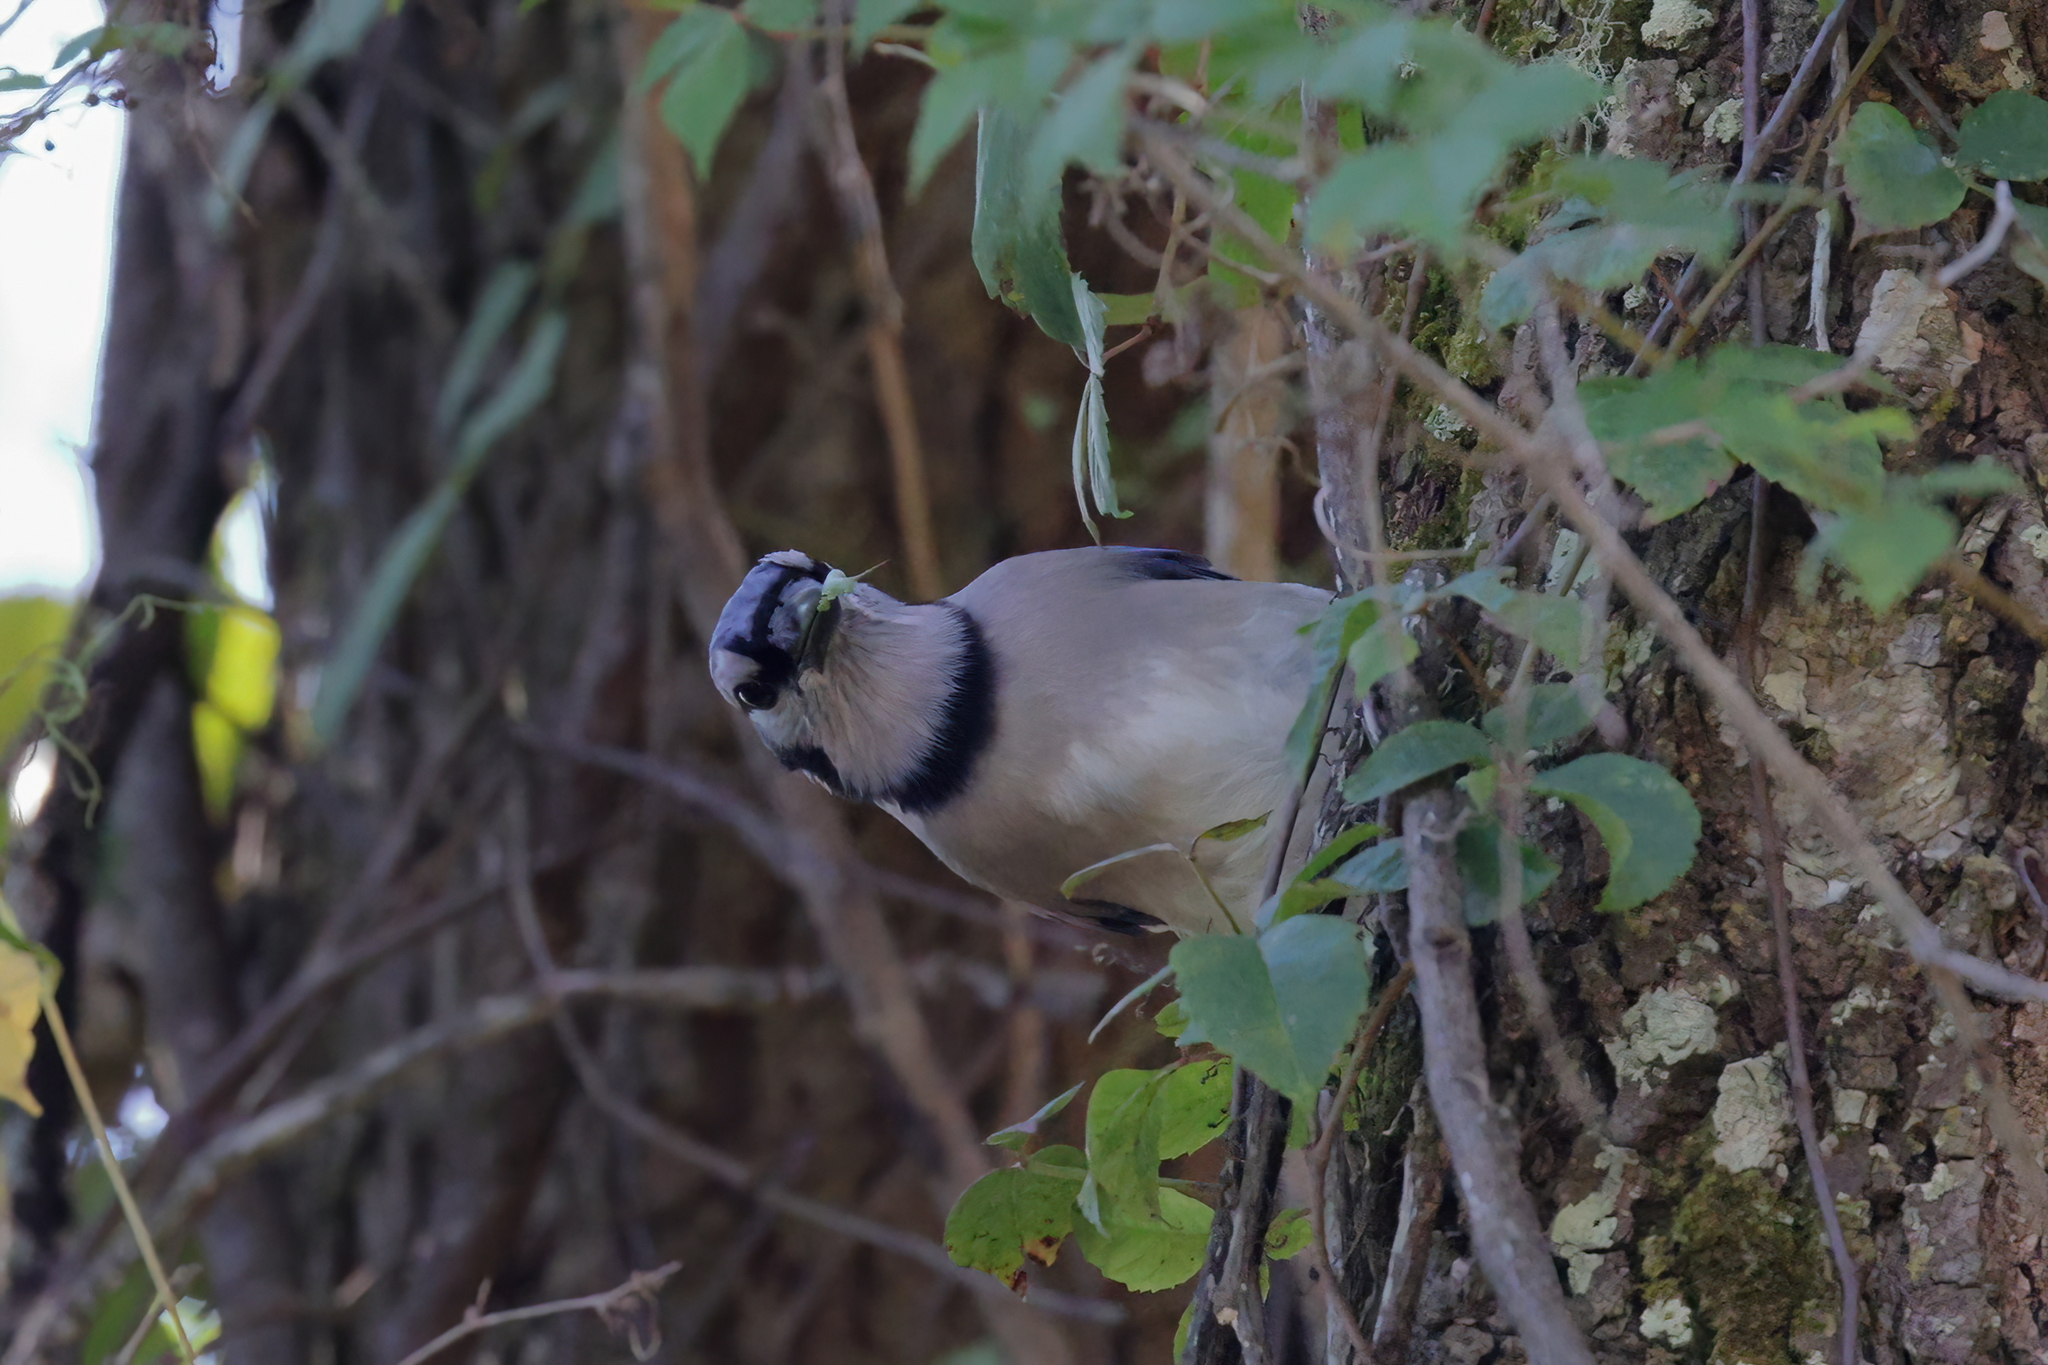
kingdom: Animalia
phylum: Chordata
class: Aves
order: Passeriformes
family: Corvidae
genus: Cyanocitta
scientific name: Cyanocitta cristata
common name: Blue jay
